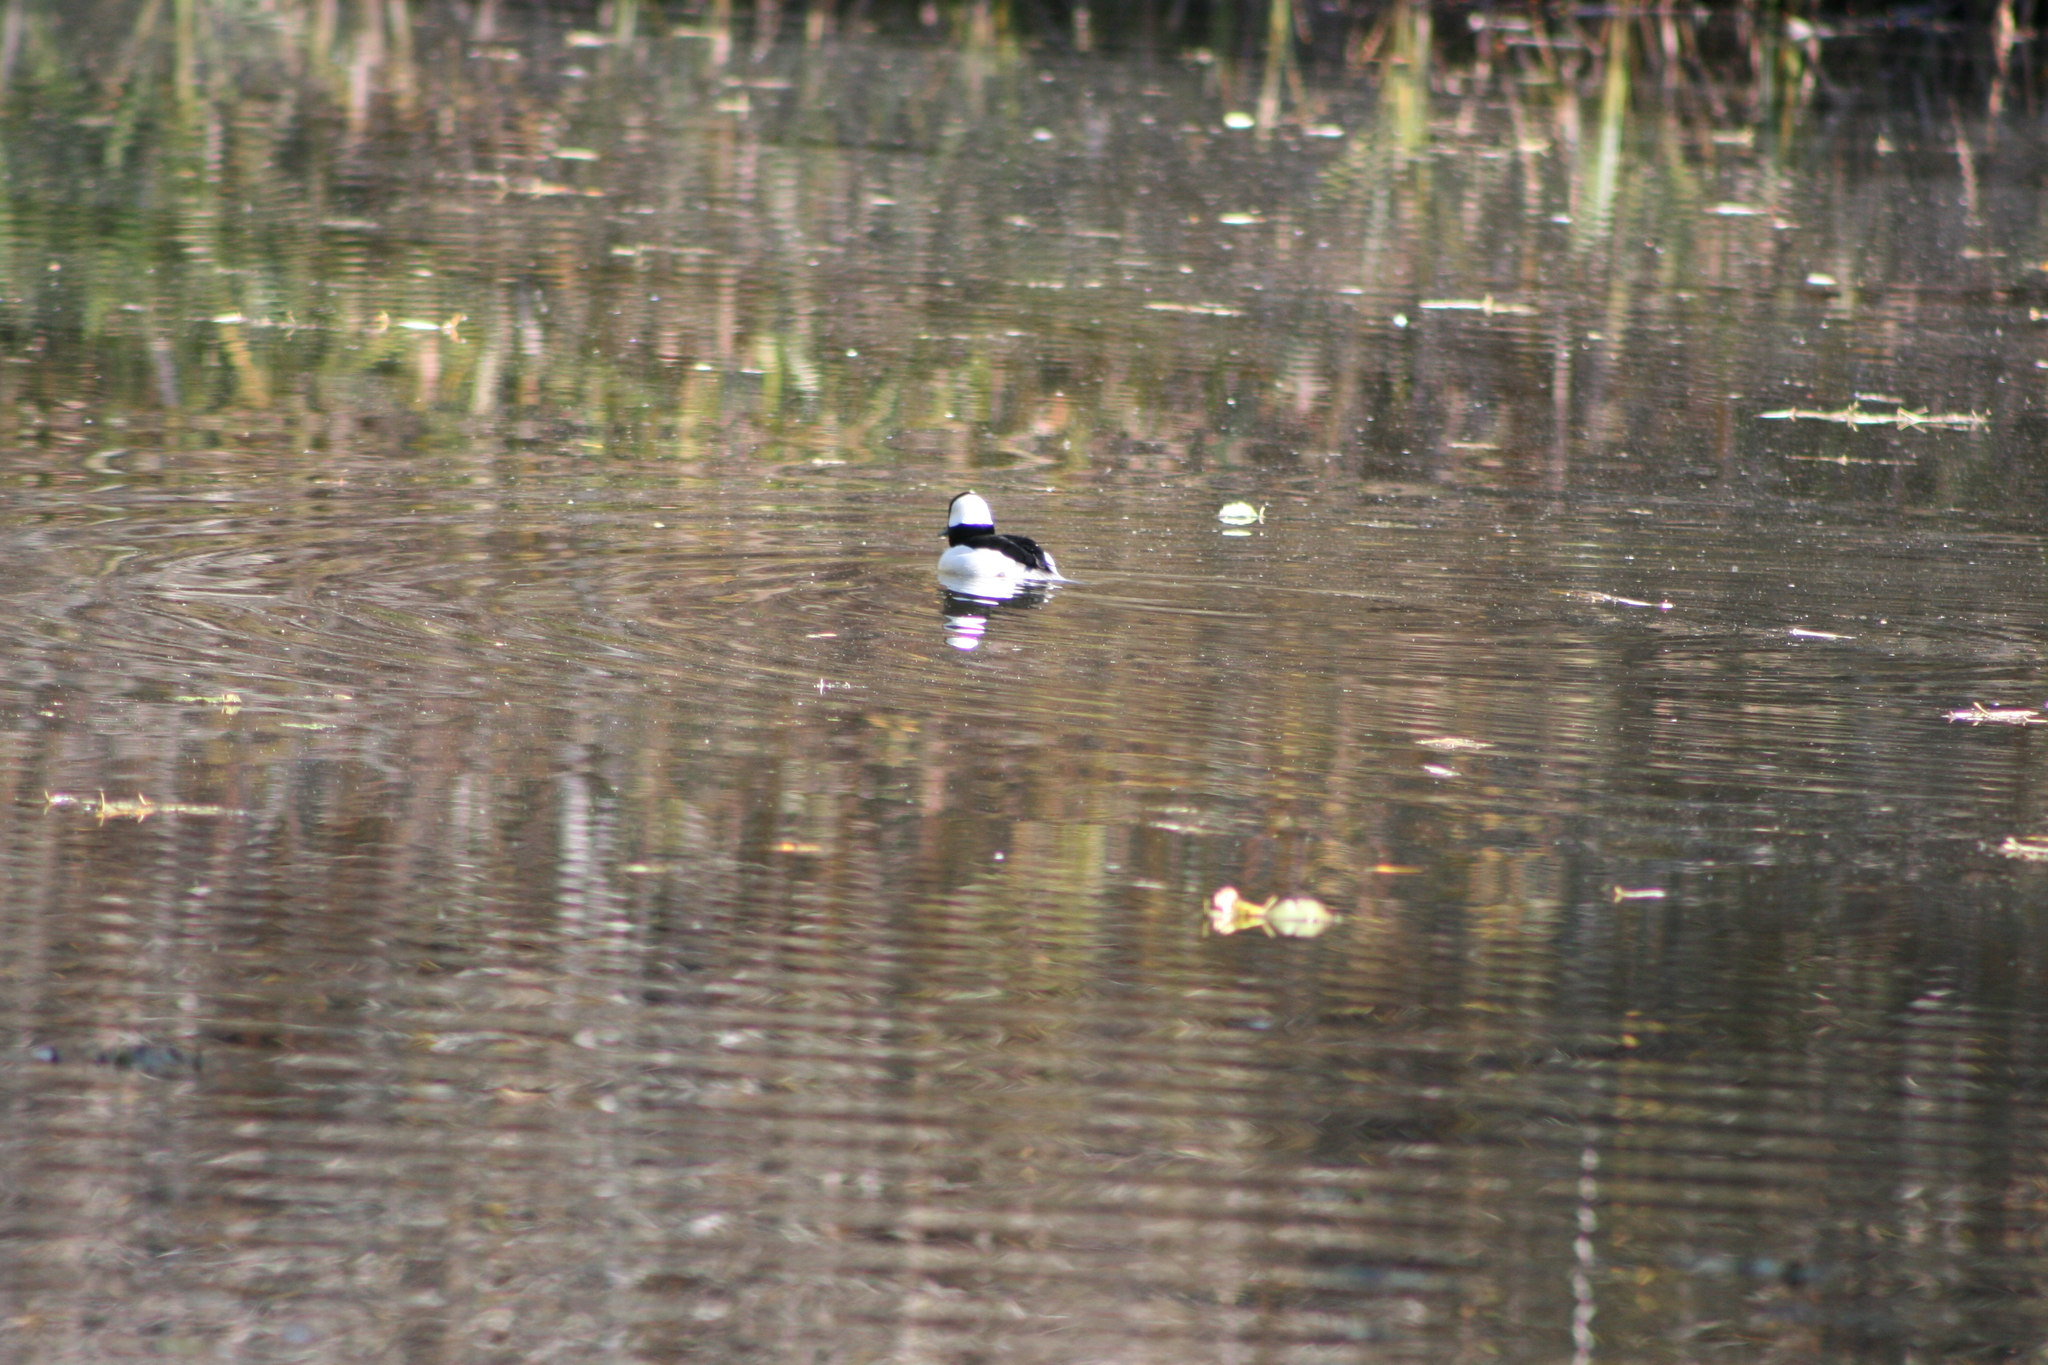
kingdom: Animalia
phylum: Chordata
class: Aves
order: Anseriformes
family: Anatidae
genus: Bucephala
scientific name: Bucephala albeola
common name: Bufflehead
